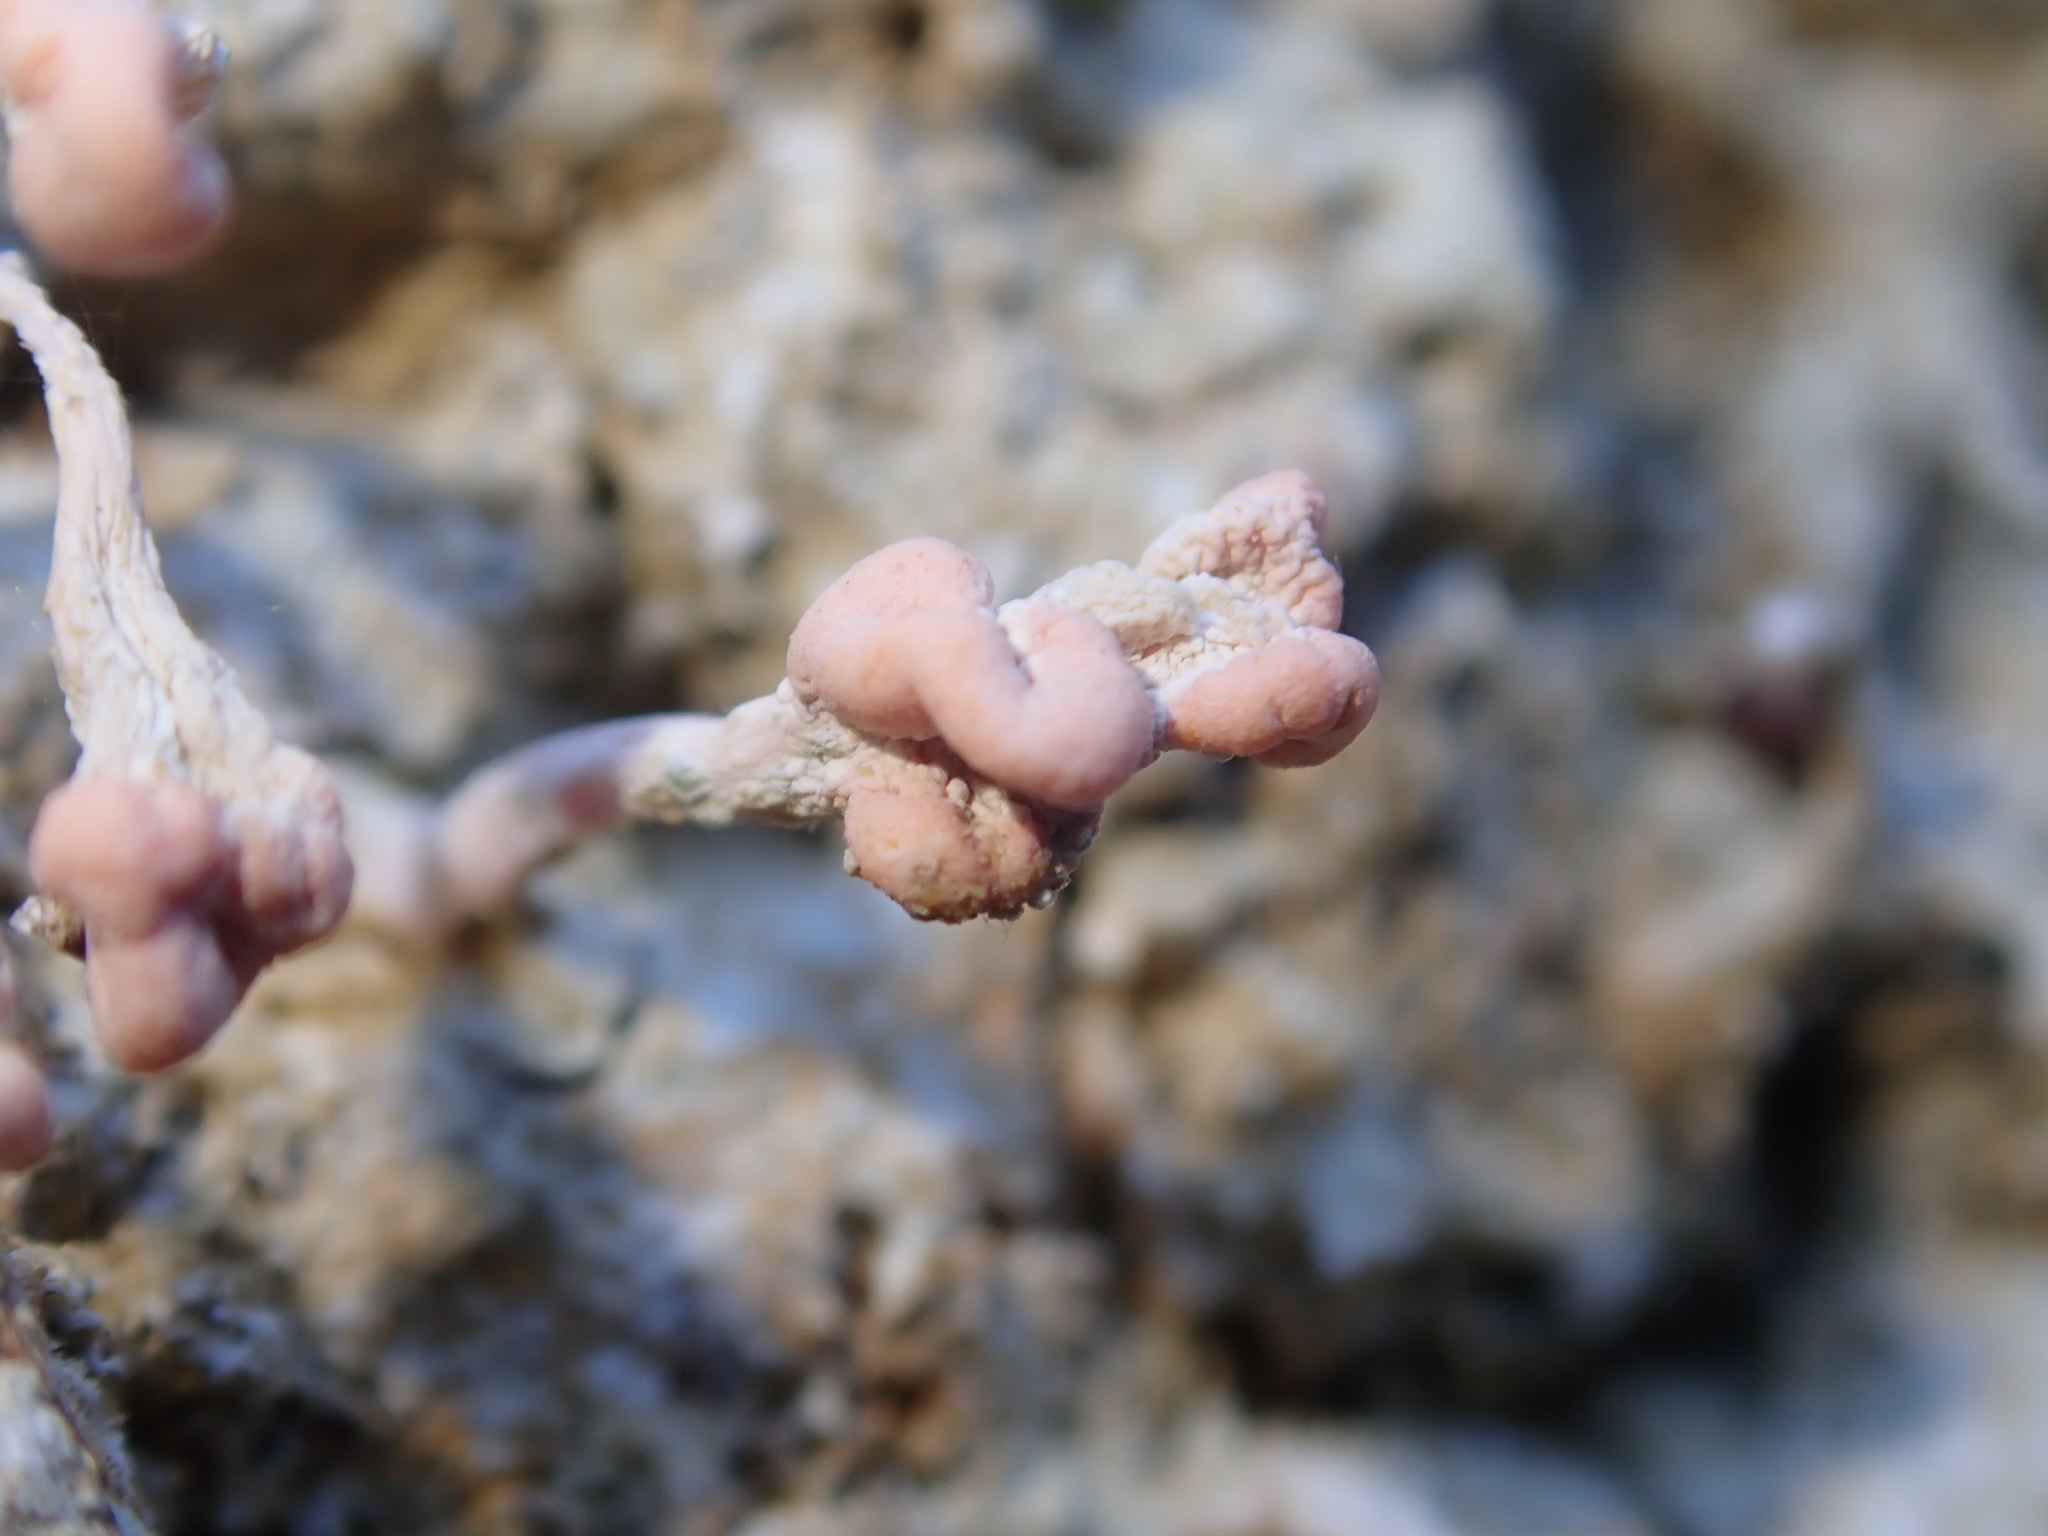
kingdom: Fungi
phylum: Ascomycota
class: Lecanoromycetes
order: Pertusariales
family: Icmadophilaceae
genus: Dibaeis
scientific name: Dibaeis arcuata
